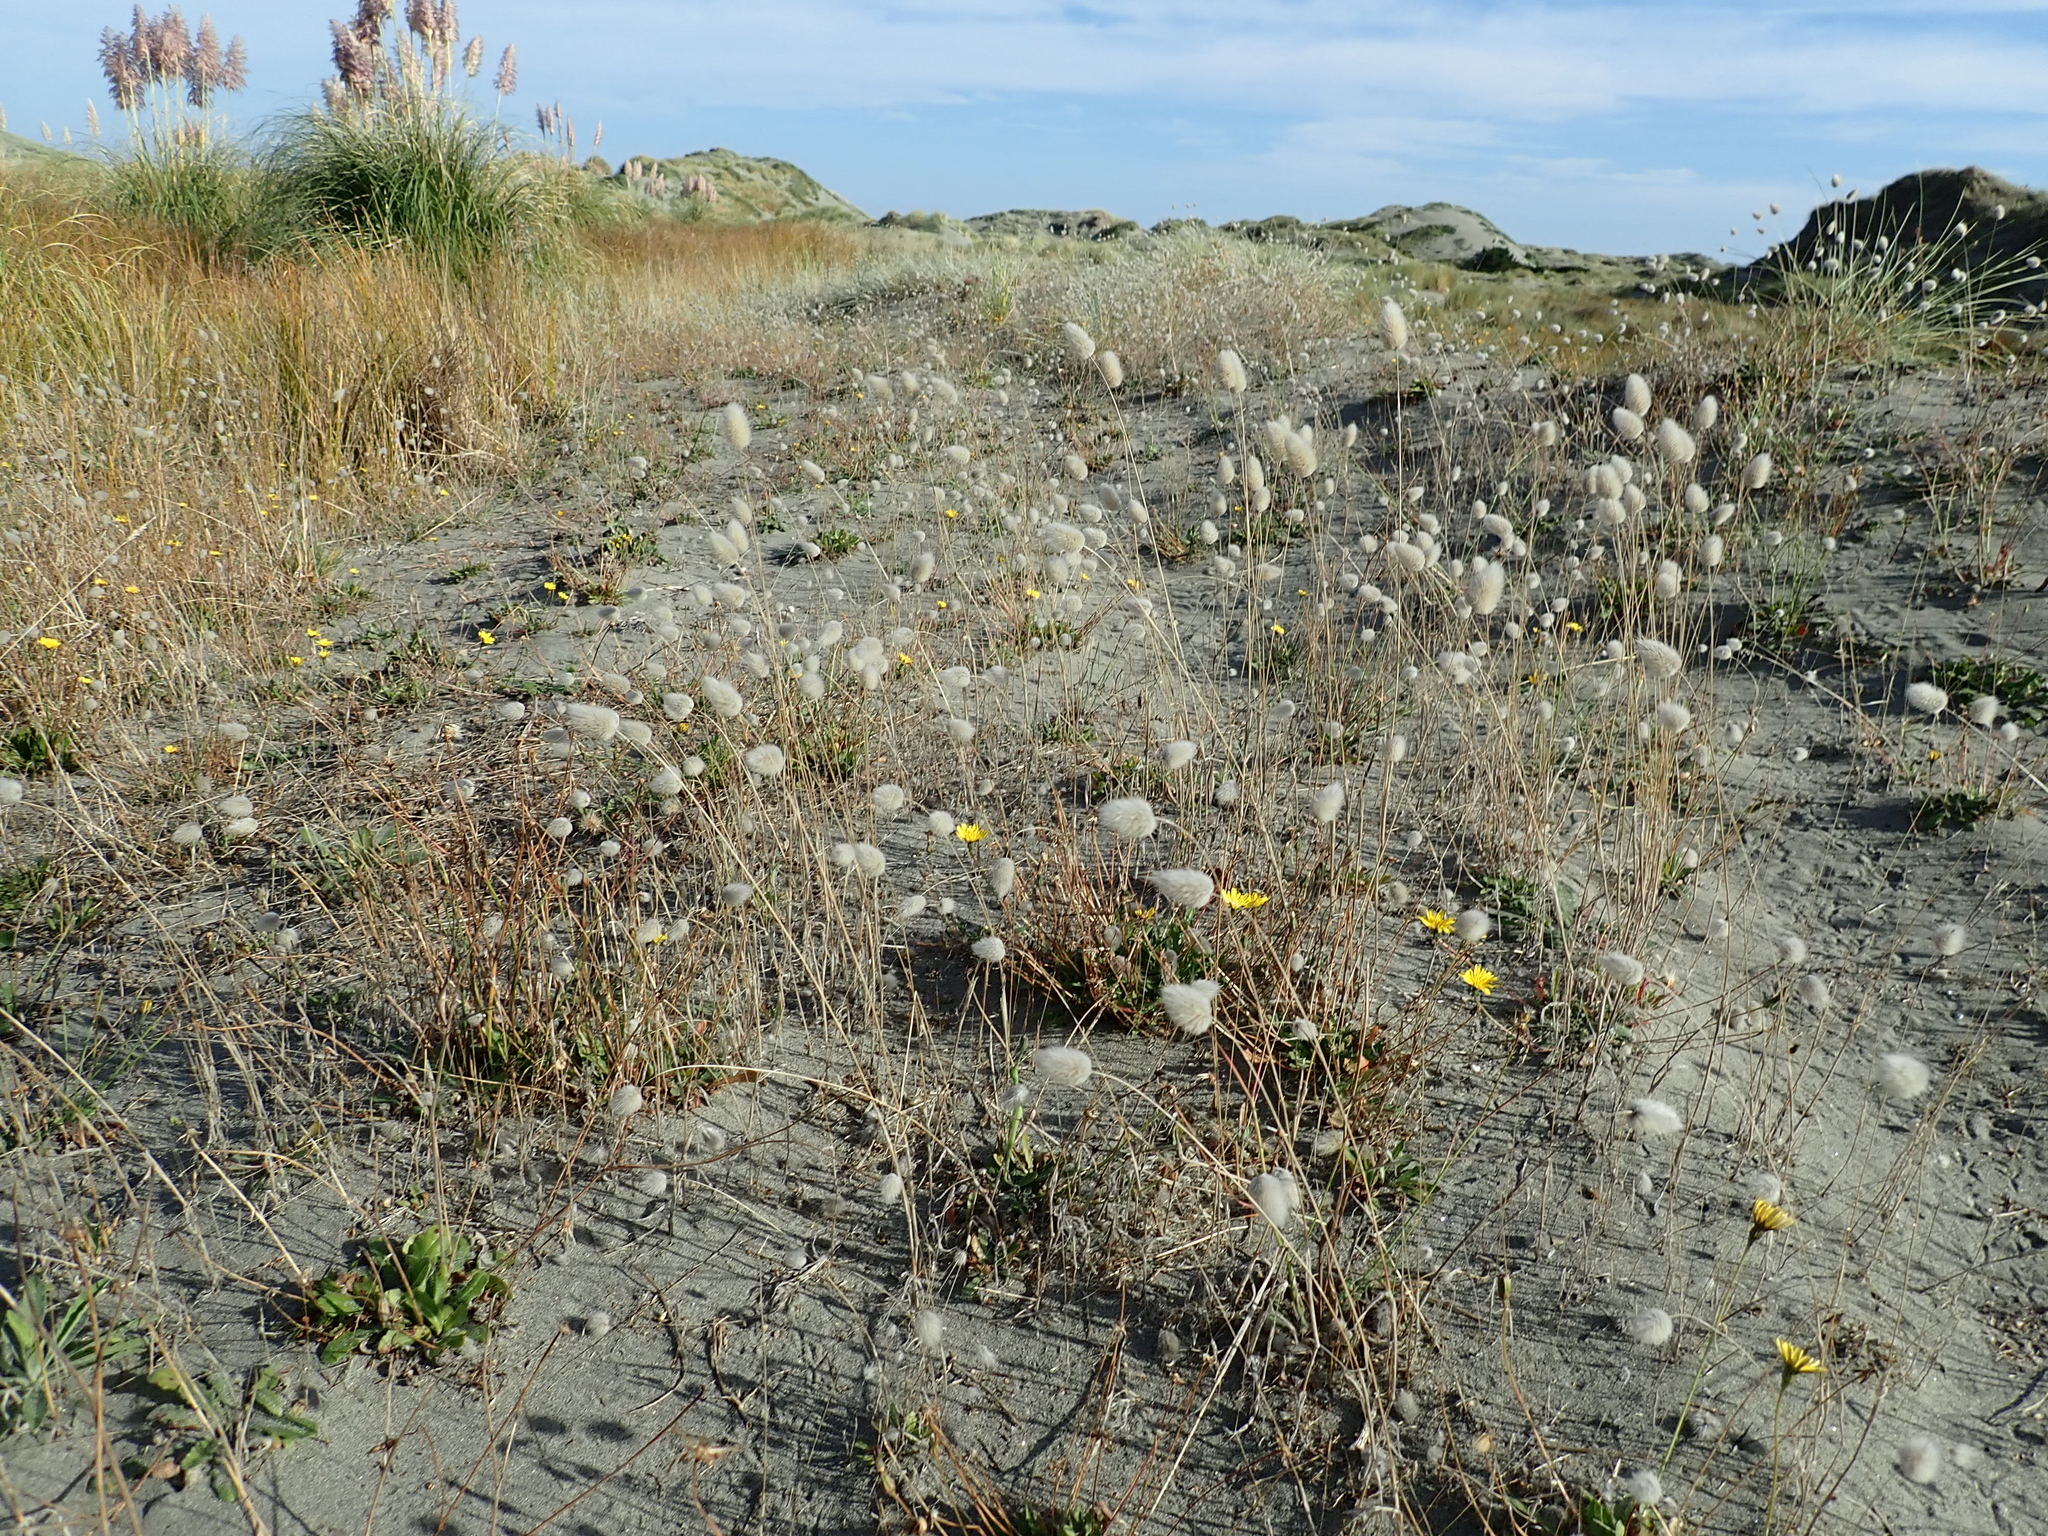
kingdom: Plantae
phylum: Tracheophyta
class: Liliopsida
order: Poales
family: Poaceae
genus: Lagurus
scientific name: Lagurus ovatus
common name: Hare's-tail
